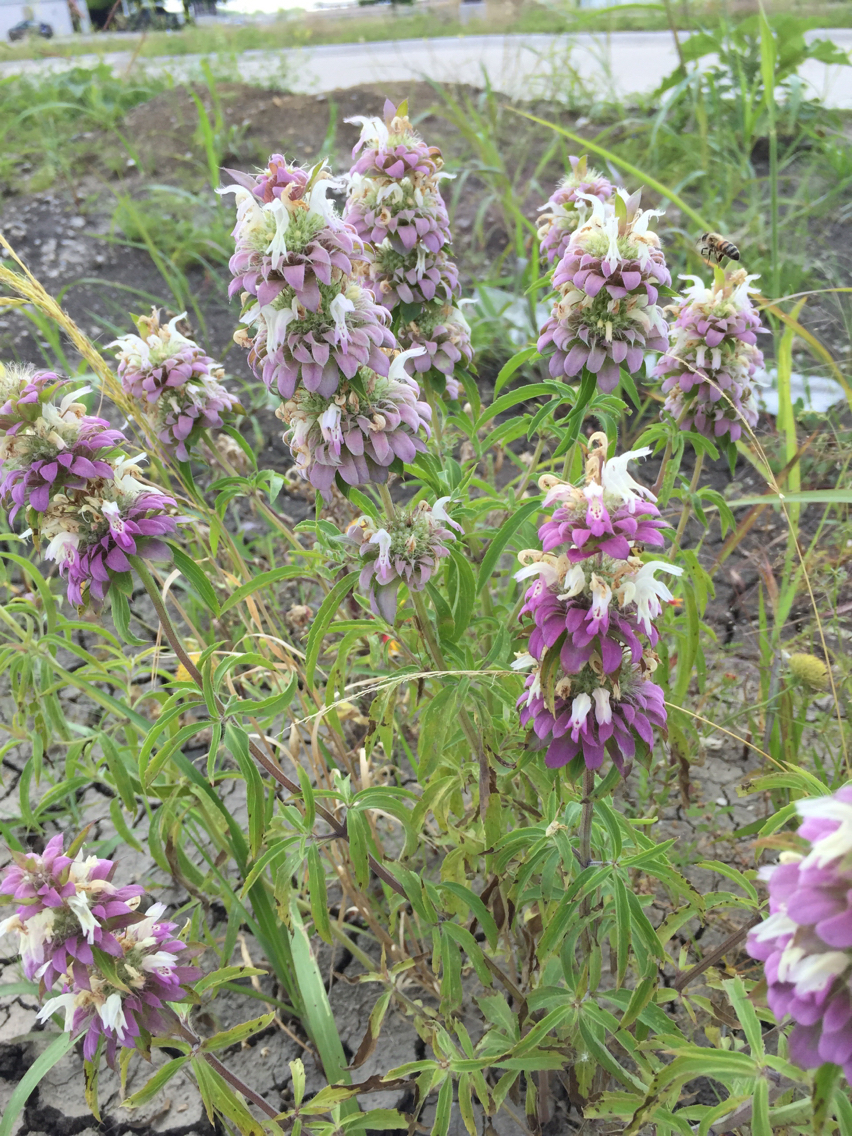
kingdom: Plantae
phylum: Tracheophyta
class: Magnoliopsida
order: Lamiales
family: Lamiaceae
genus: Monarda
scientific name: Monarda citriodora
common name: Lemon beebalm
